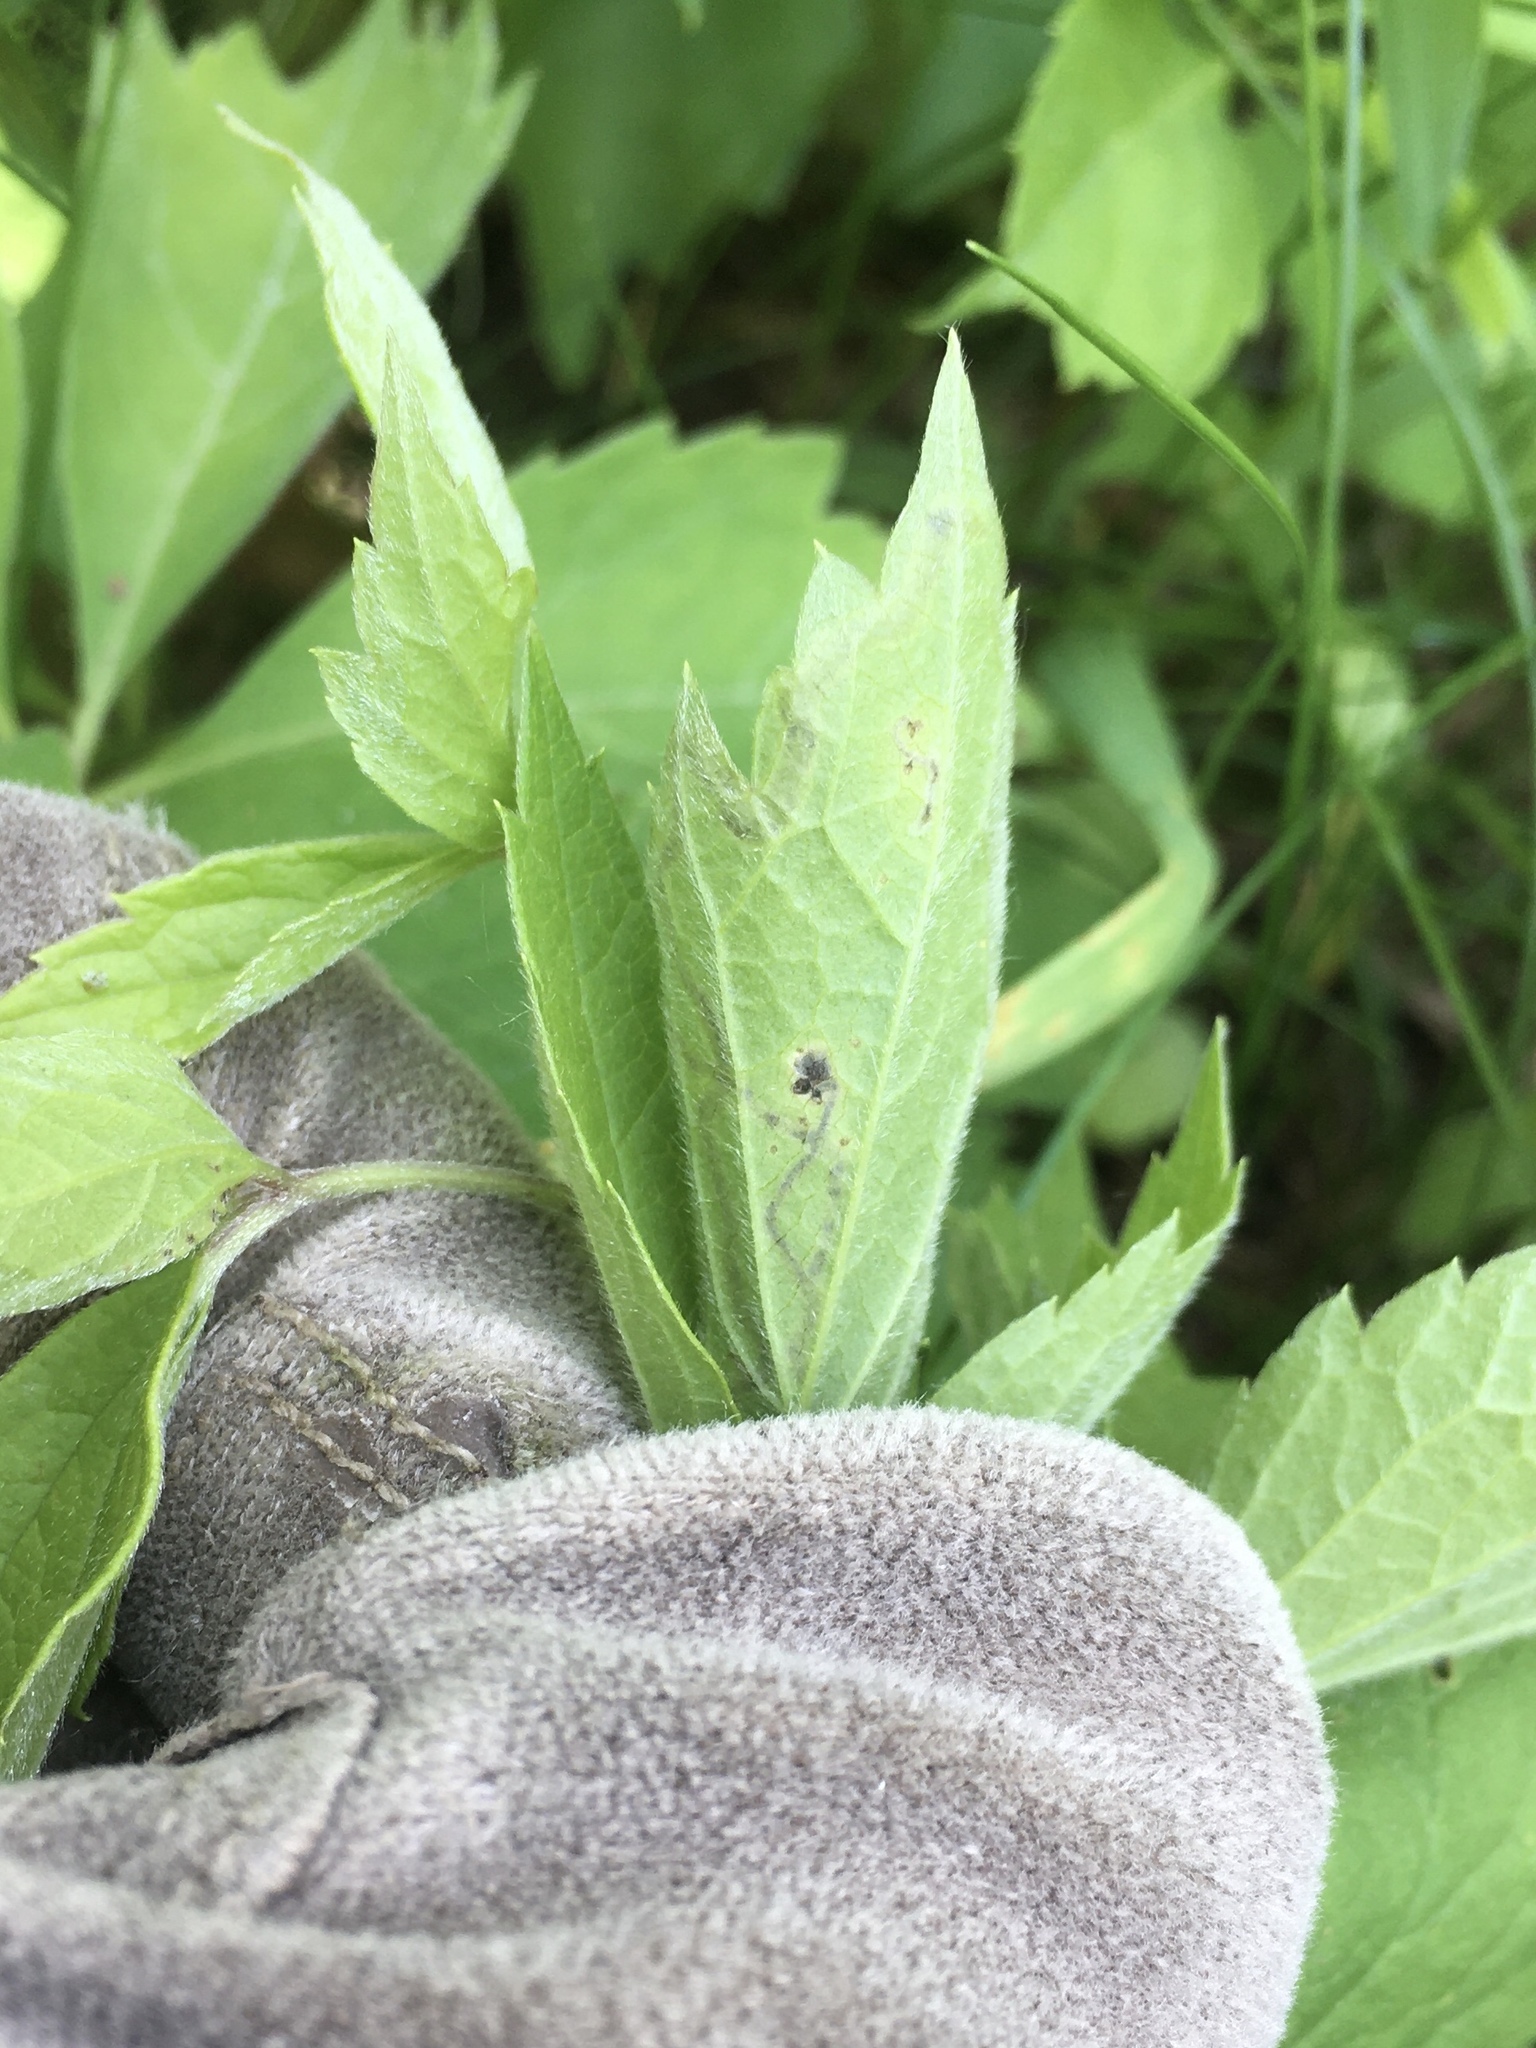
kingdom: Animalia
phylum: Arthropoda
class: Insecta
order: Diptera
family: Agromyzidae
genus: Phytomyza
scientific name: Phytomyza loewii
